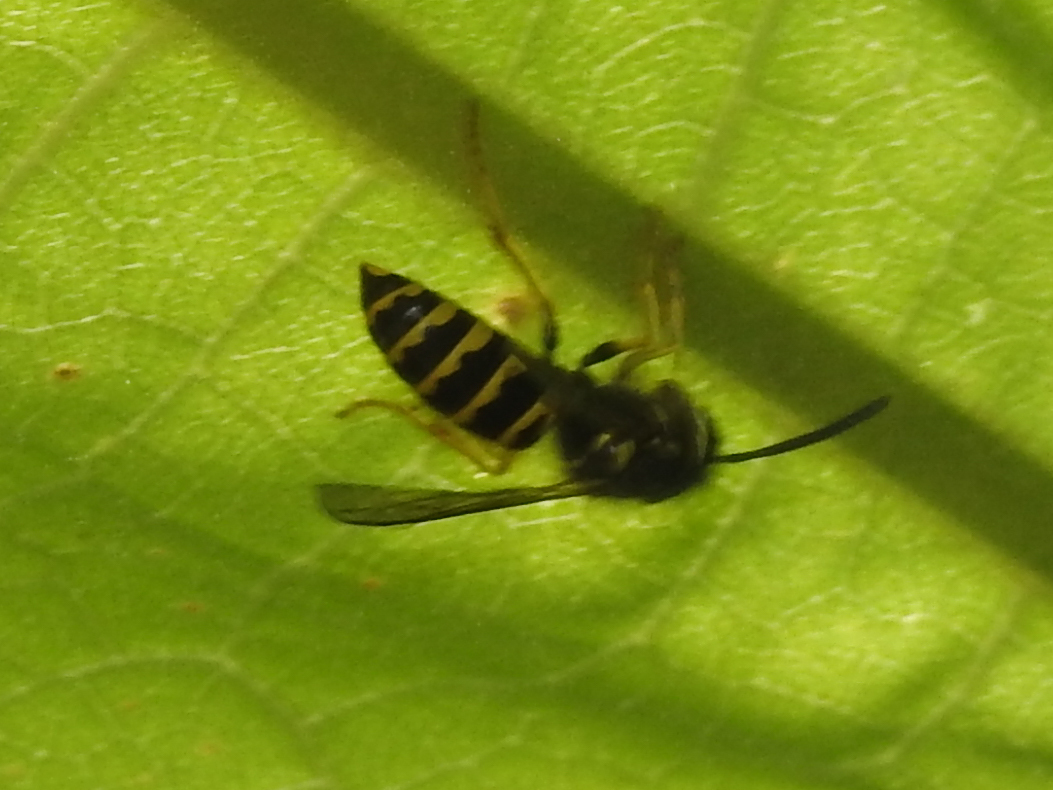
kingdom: Animalia
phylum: Arthropoda
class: Insecta
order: Hymenoptera
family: Vespidae
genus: Vespula
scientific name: Vespula maculifrons
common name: Eastern yellowjacket
